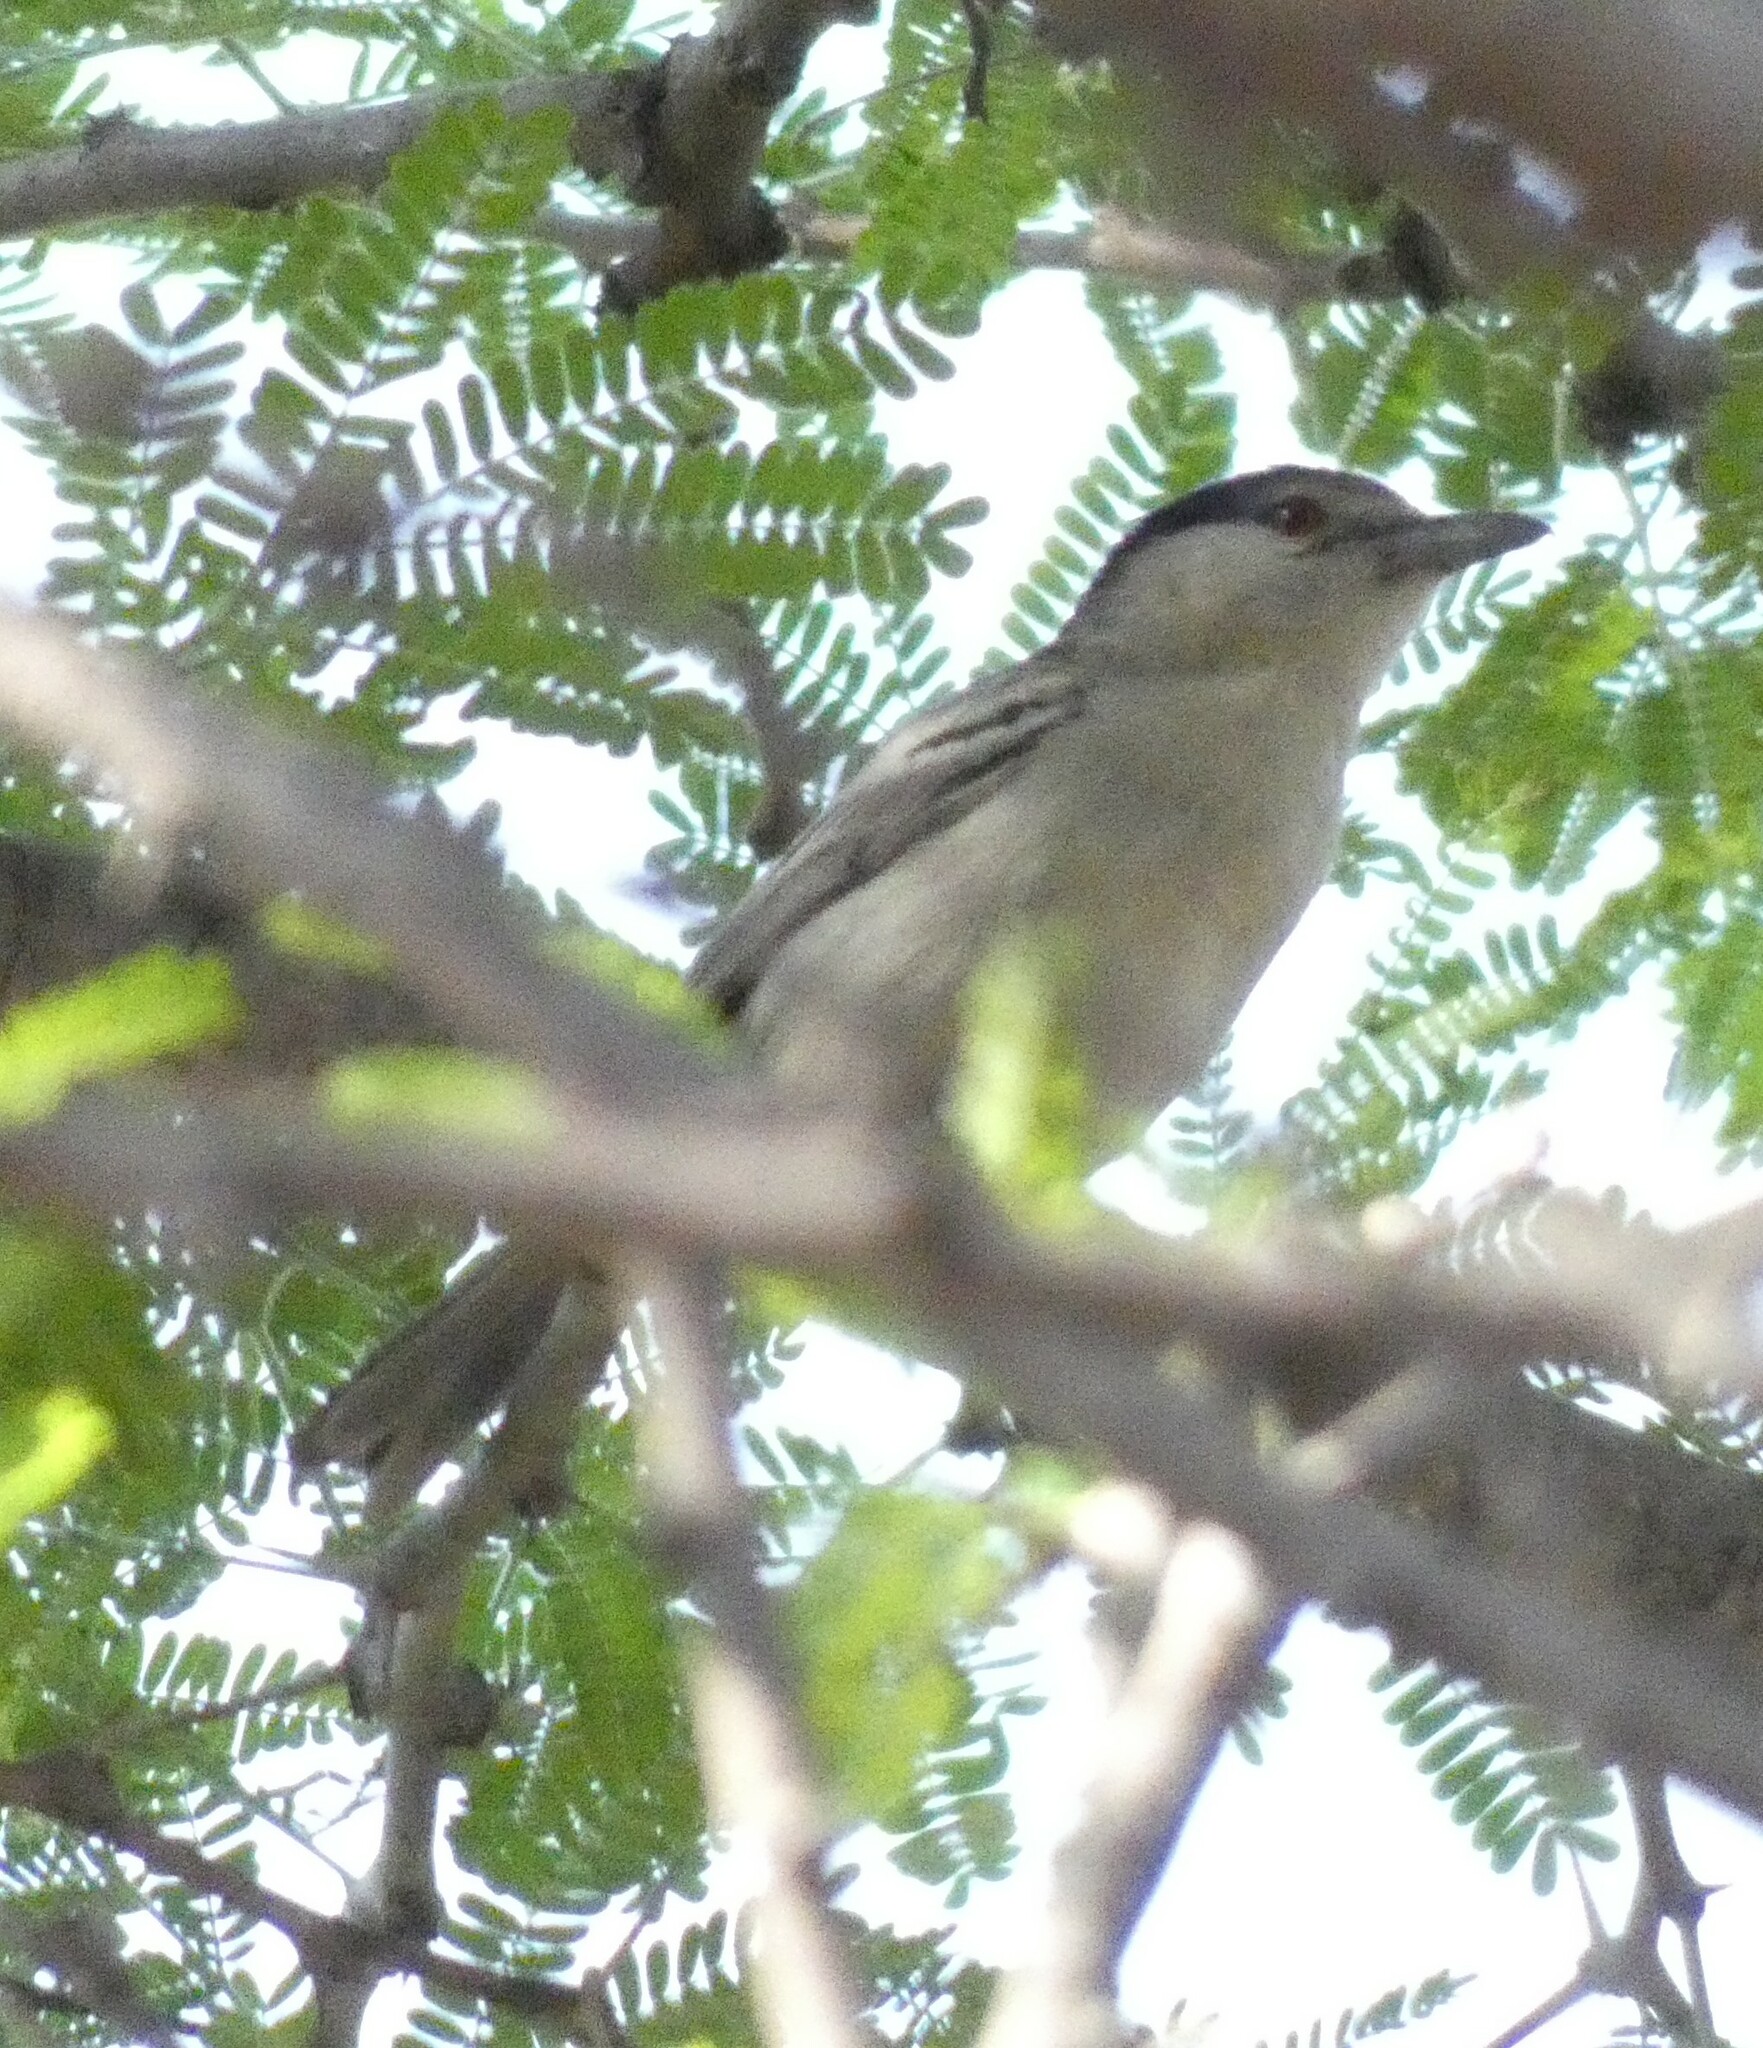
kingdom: Animalia
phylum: Chordata
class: Aves
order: Passeriformes
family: Malaconotidae
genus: Dryoscopus
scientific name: Dryoscopus cubla
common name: Black-backed puffback
